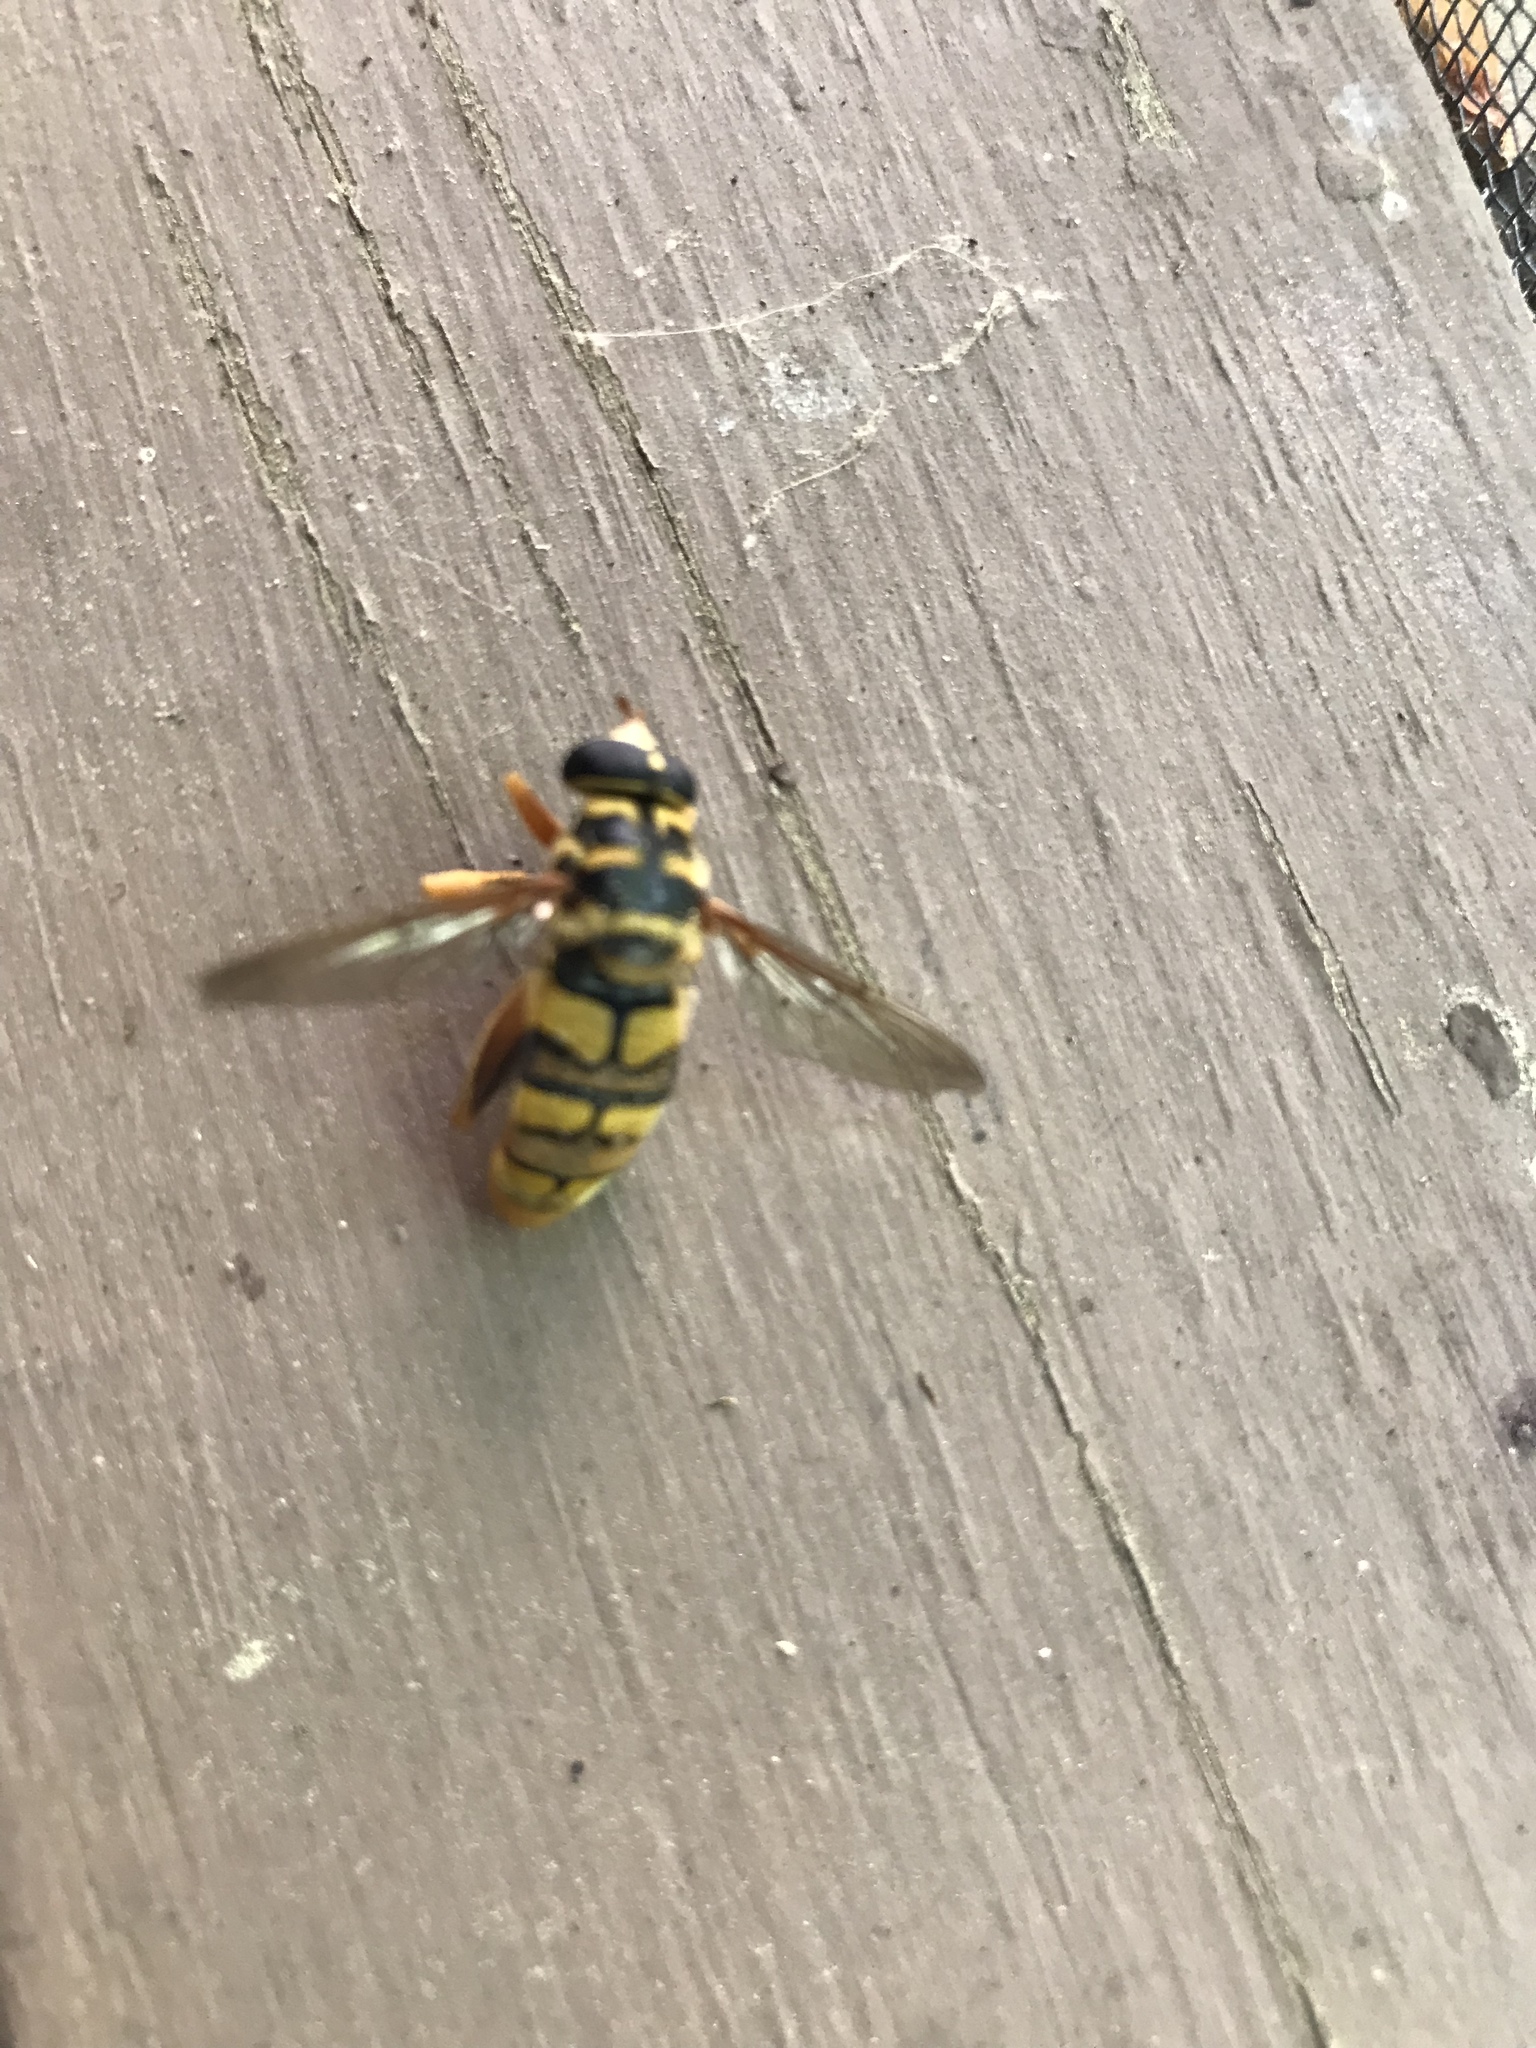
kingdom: Animalia
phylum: Arthropoda
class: Insecta
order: Diptera
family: Syrphidae
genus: Milesia
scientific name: Milesia virginiensis
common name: Virginia giant
